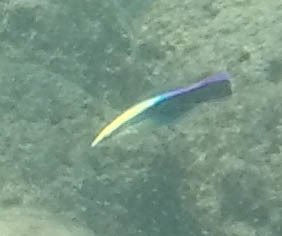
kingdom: Animalia
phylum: Chordata
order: Perciformes
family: Labridae
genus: Labroides
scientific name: Labroides phthirophagus
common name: Cleaner wrasse
